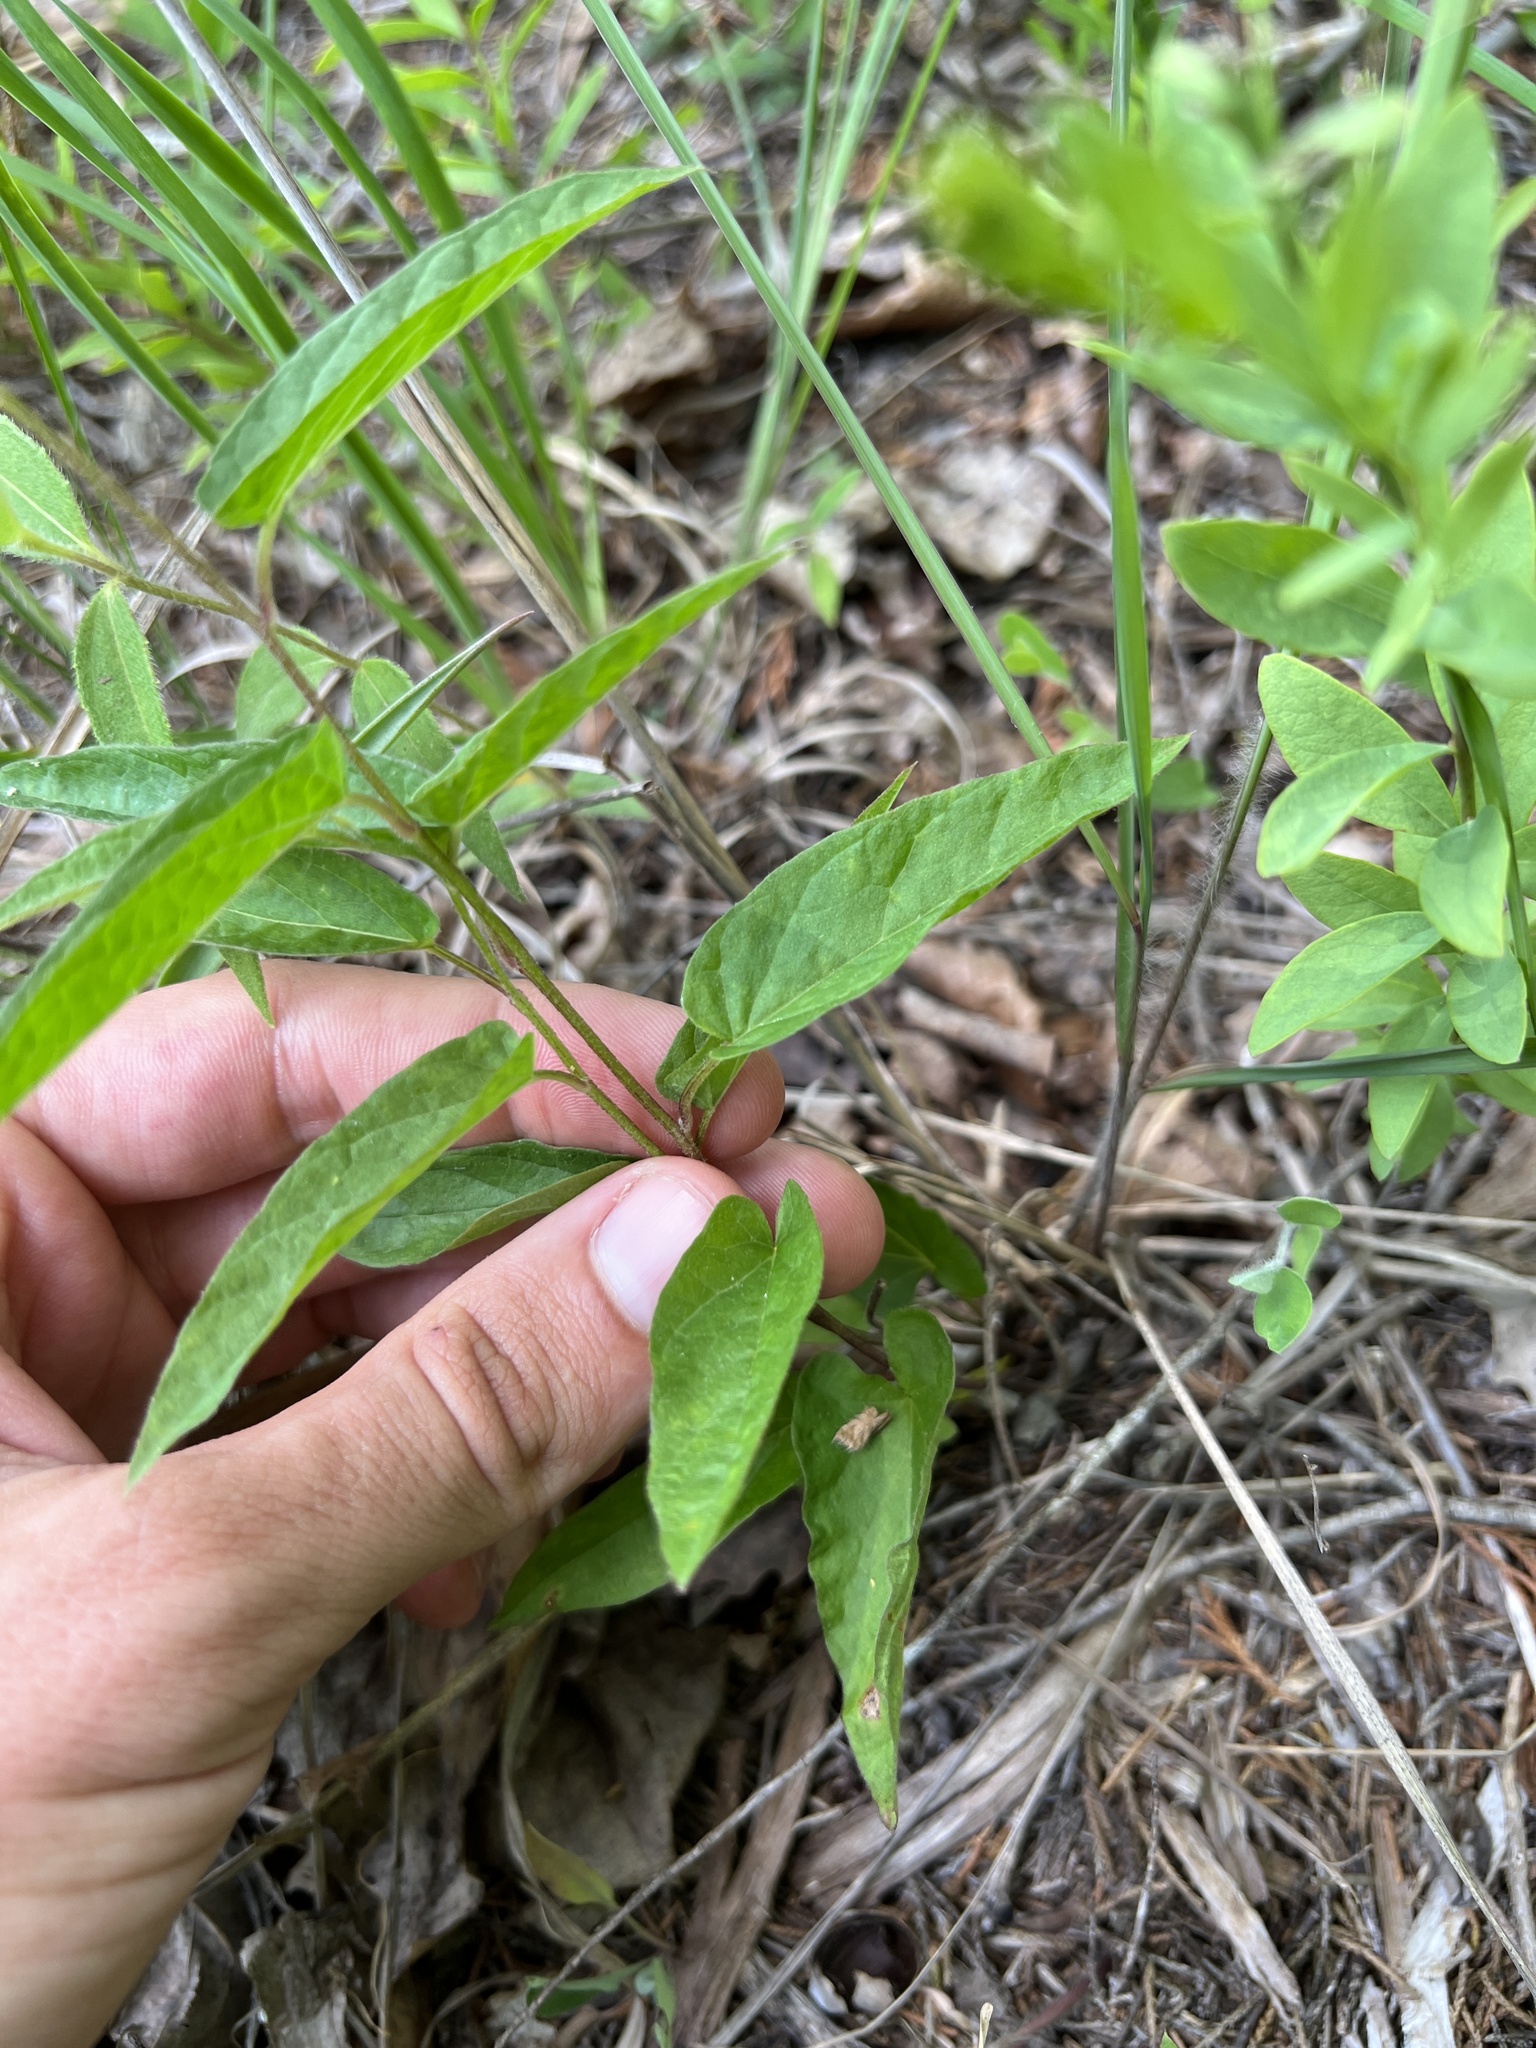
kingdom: Plantae
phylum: Tracheophyta
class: Magnoliopsida
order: Solanales
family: Convolvulaceae
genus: Calystegia
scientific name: Calystegia spithamaea
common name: Dwarf bindweed
